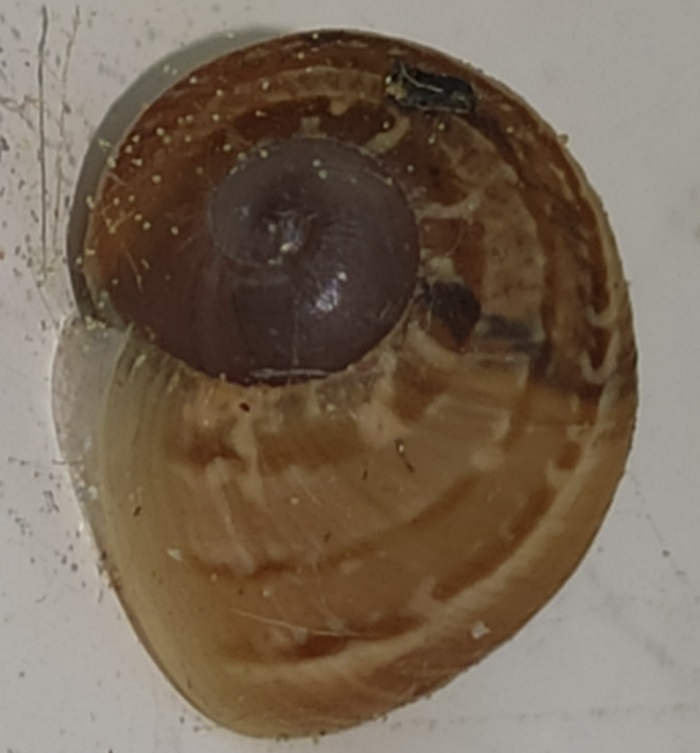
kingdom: Animalia
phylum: Mollusca
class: Gastropoda
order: Stylommatophora
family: Helicidae
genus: Cornu
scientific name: Cornu aspersum
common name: Brown garden snail
